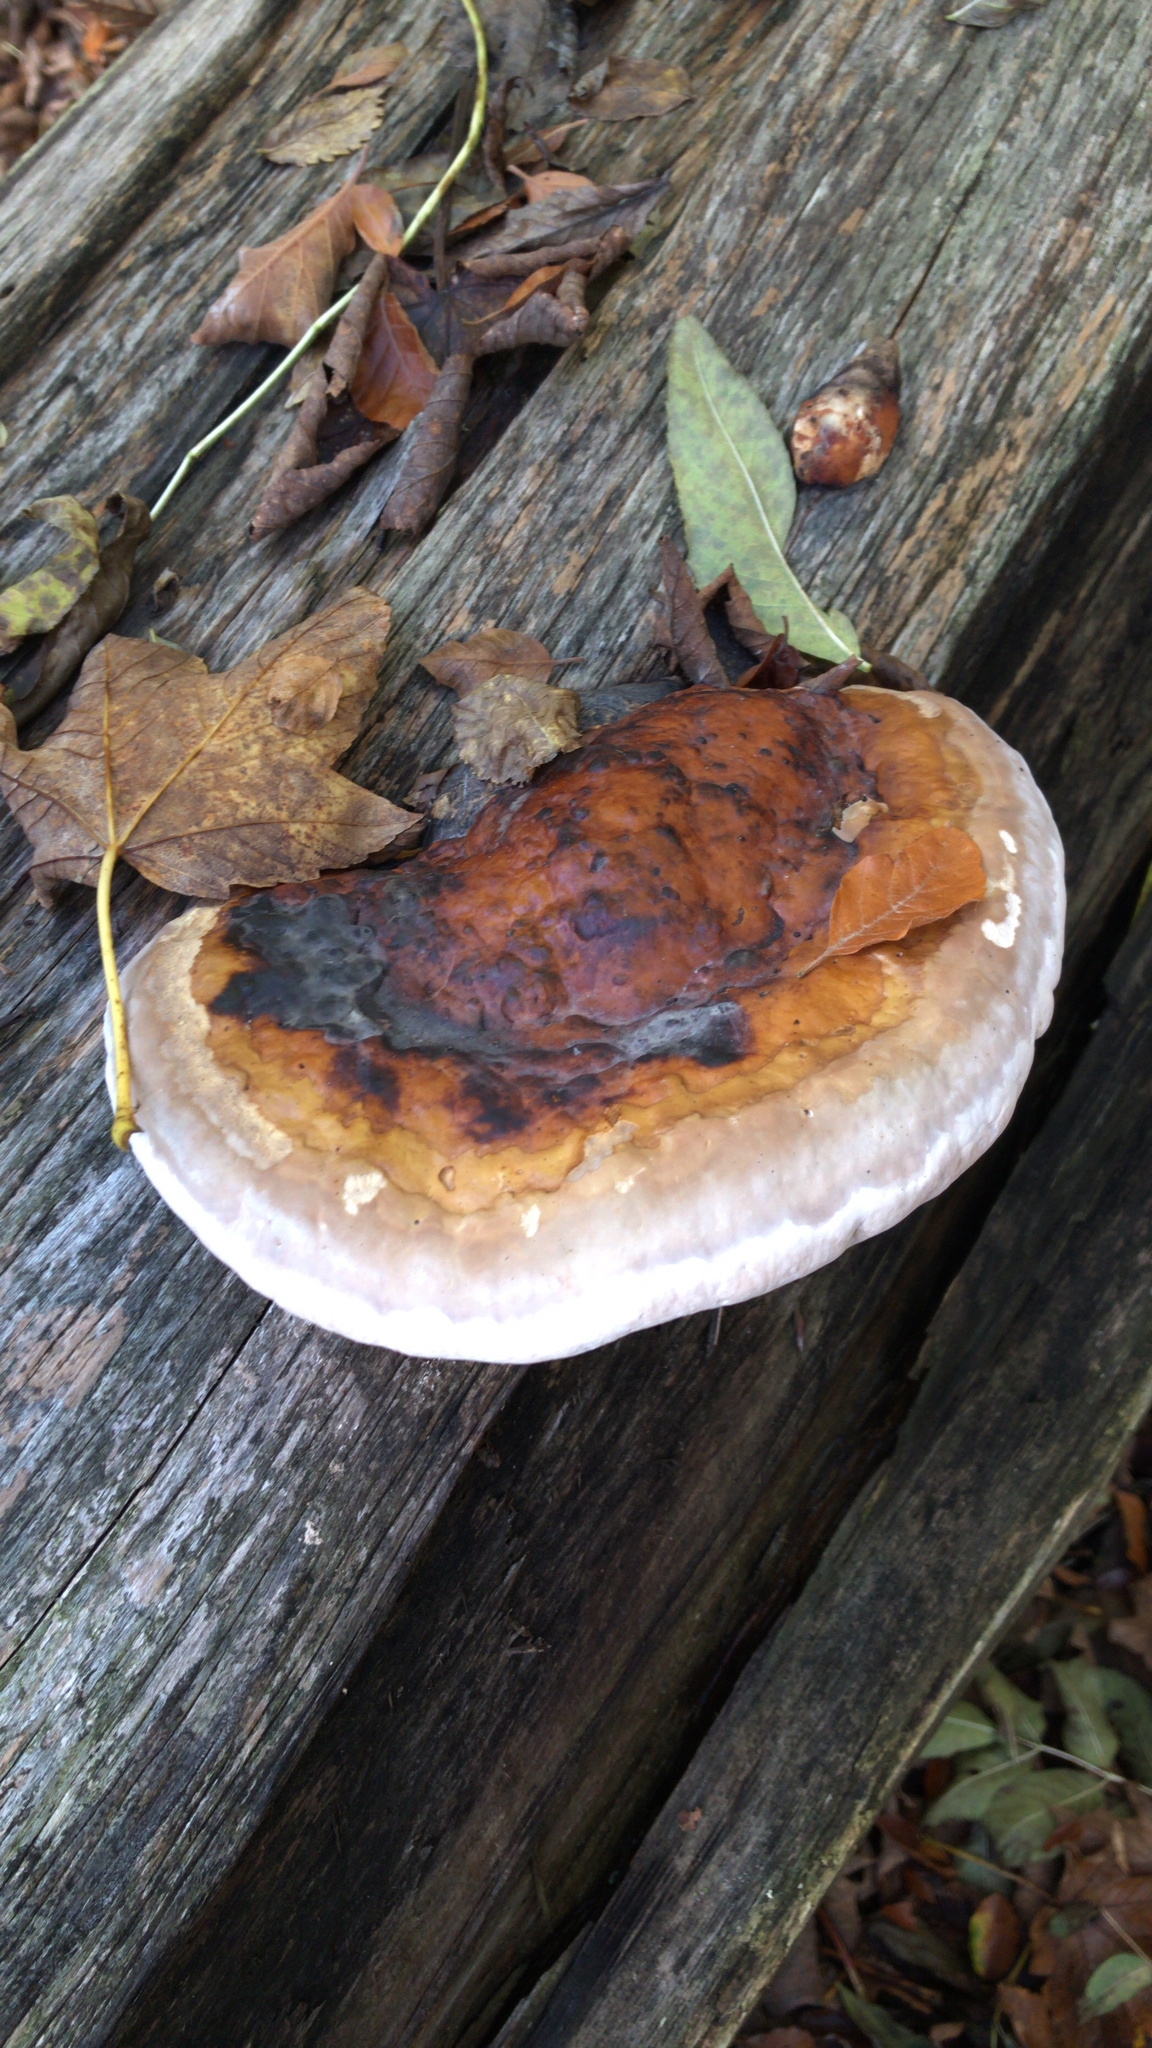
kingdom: Fungi
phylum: Basidiomycota
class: Agaricomycetes
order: Polyporales
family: Fomitopsidaceae
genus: Fomitopsis
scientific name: Fomitopsis pinicola
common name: Red-belted bracket
